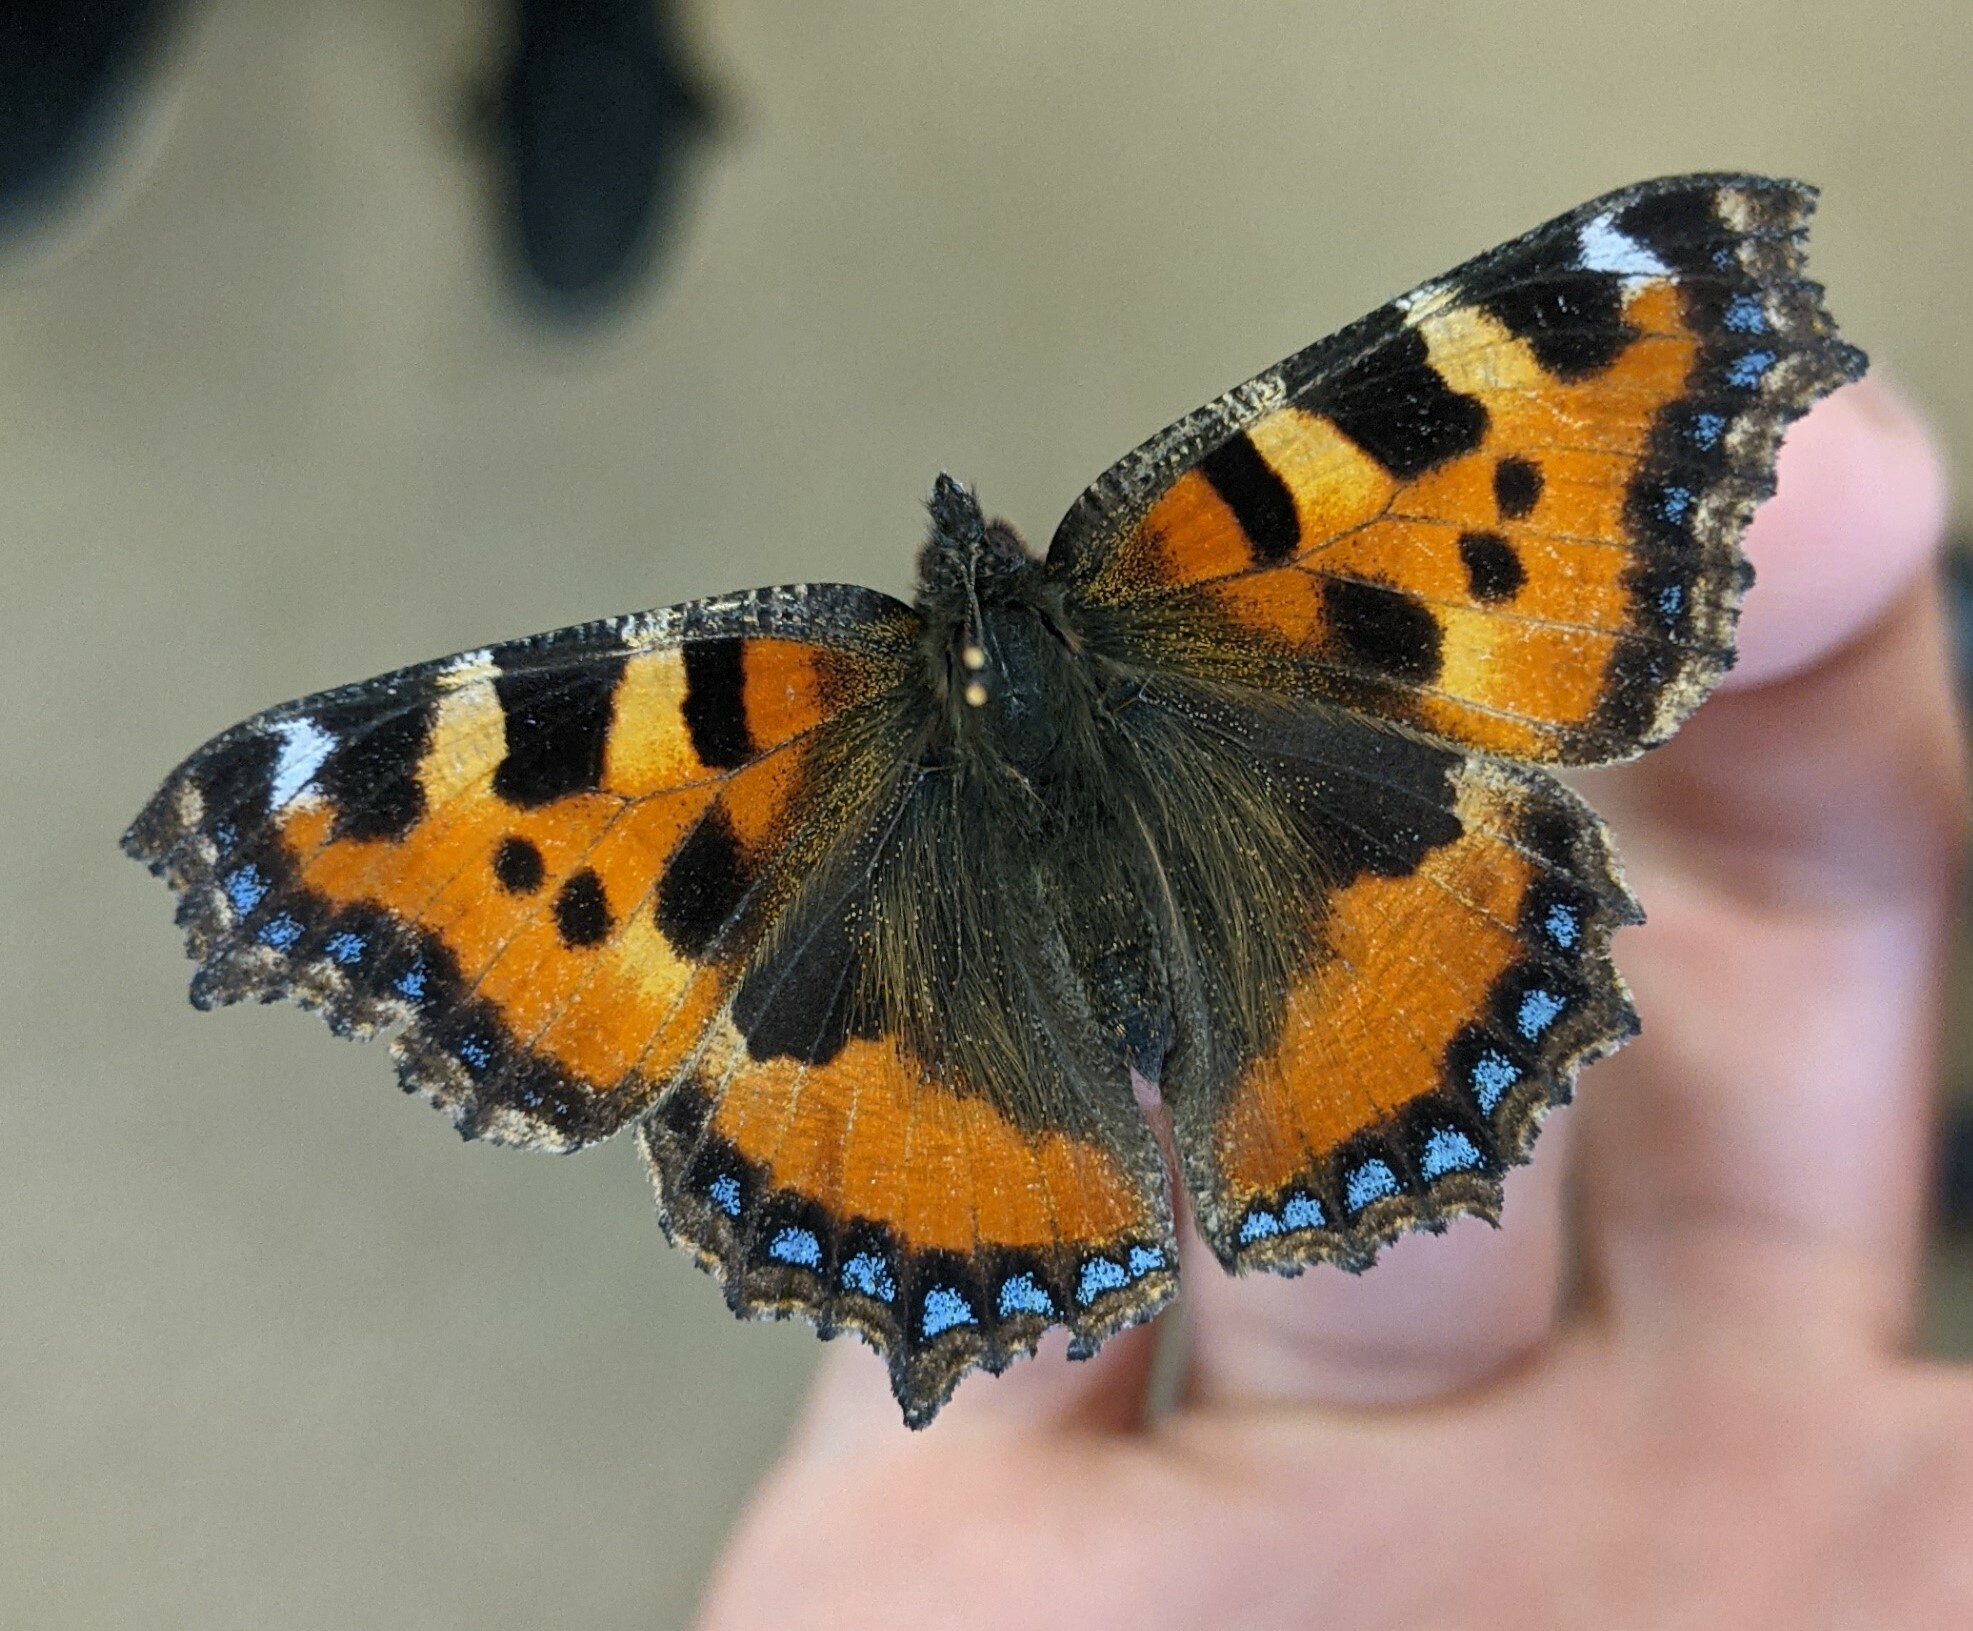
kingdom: Animalia
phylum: Arthropoda
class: Insecta
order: Lepidoptera
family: Nymphalidae
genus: Aglais
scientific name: Aglais urticae
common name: Small tortoiseshell
